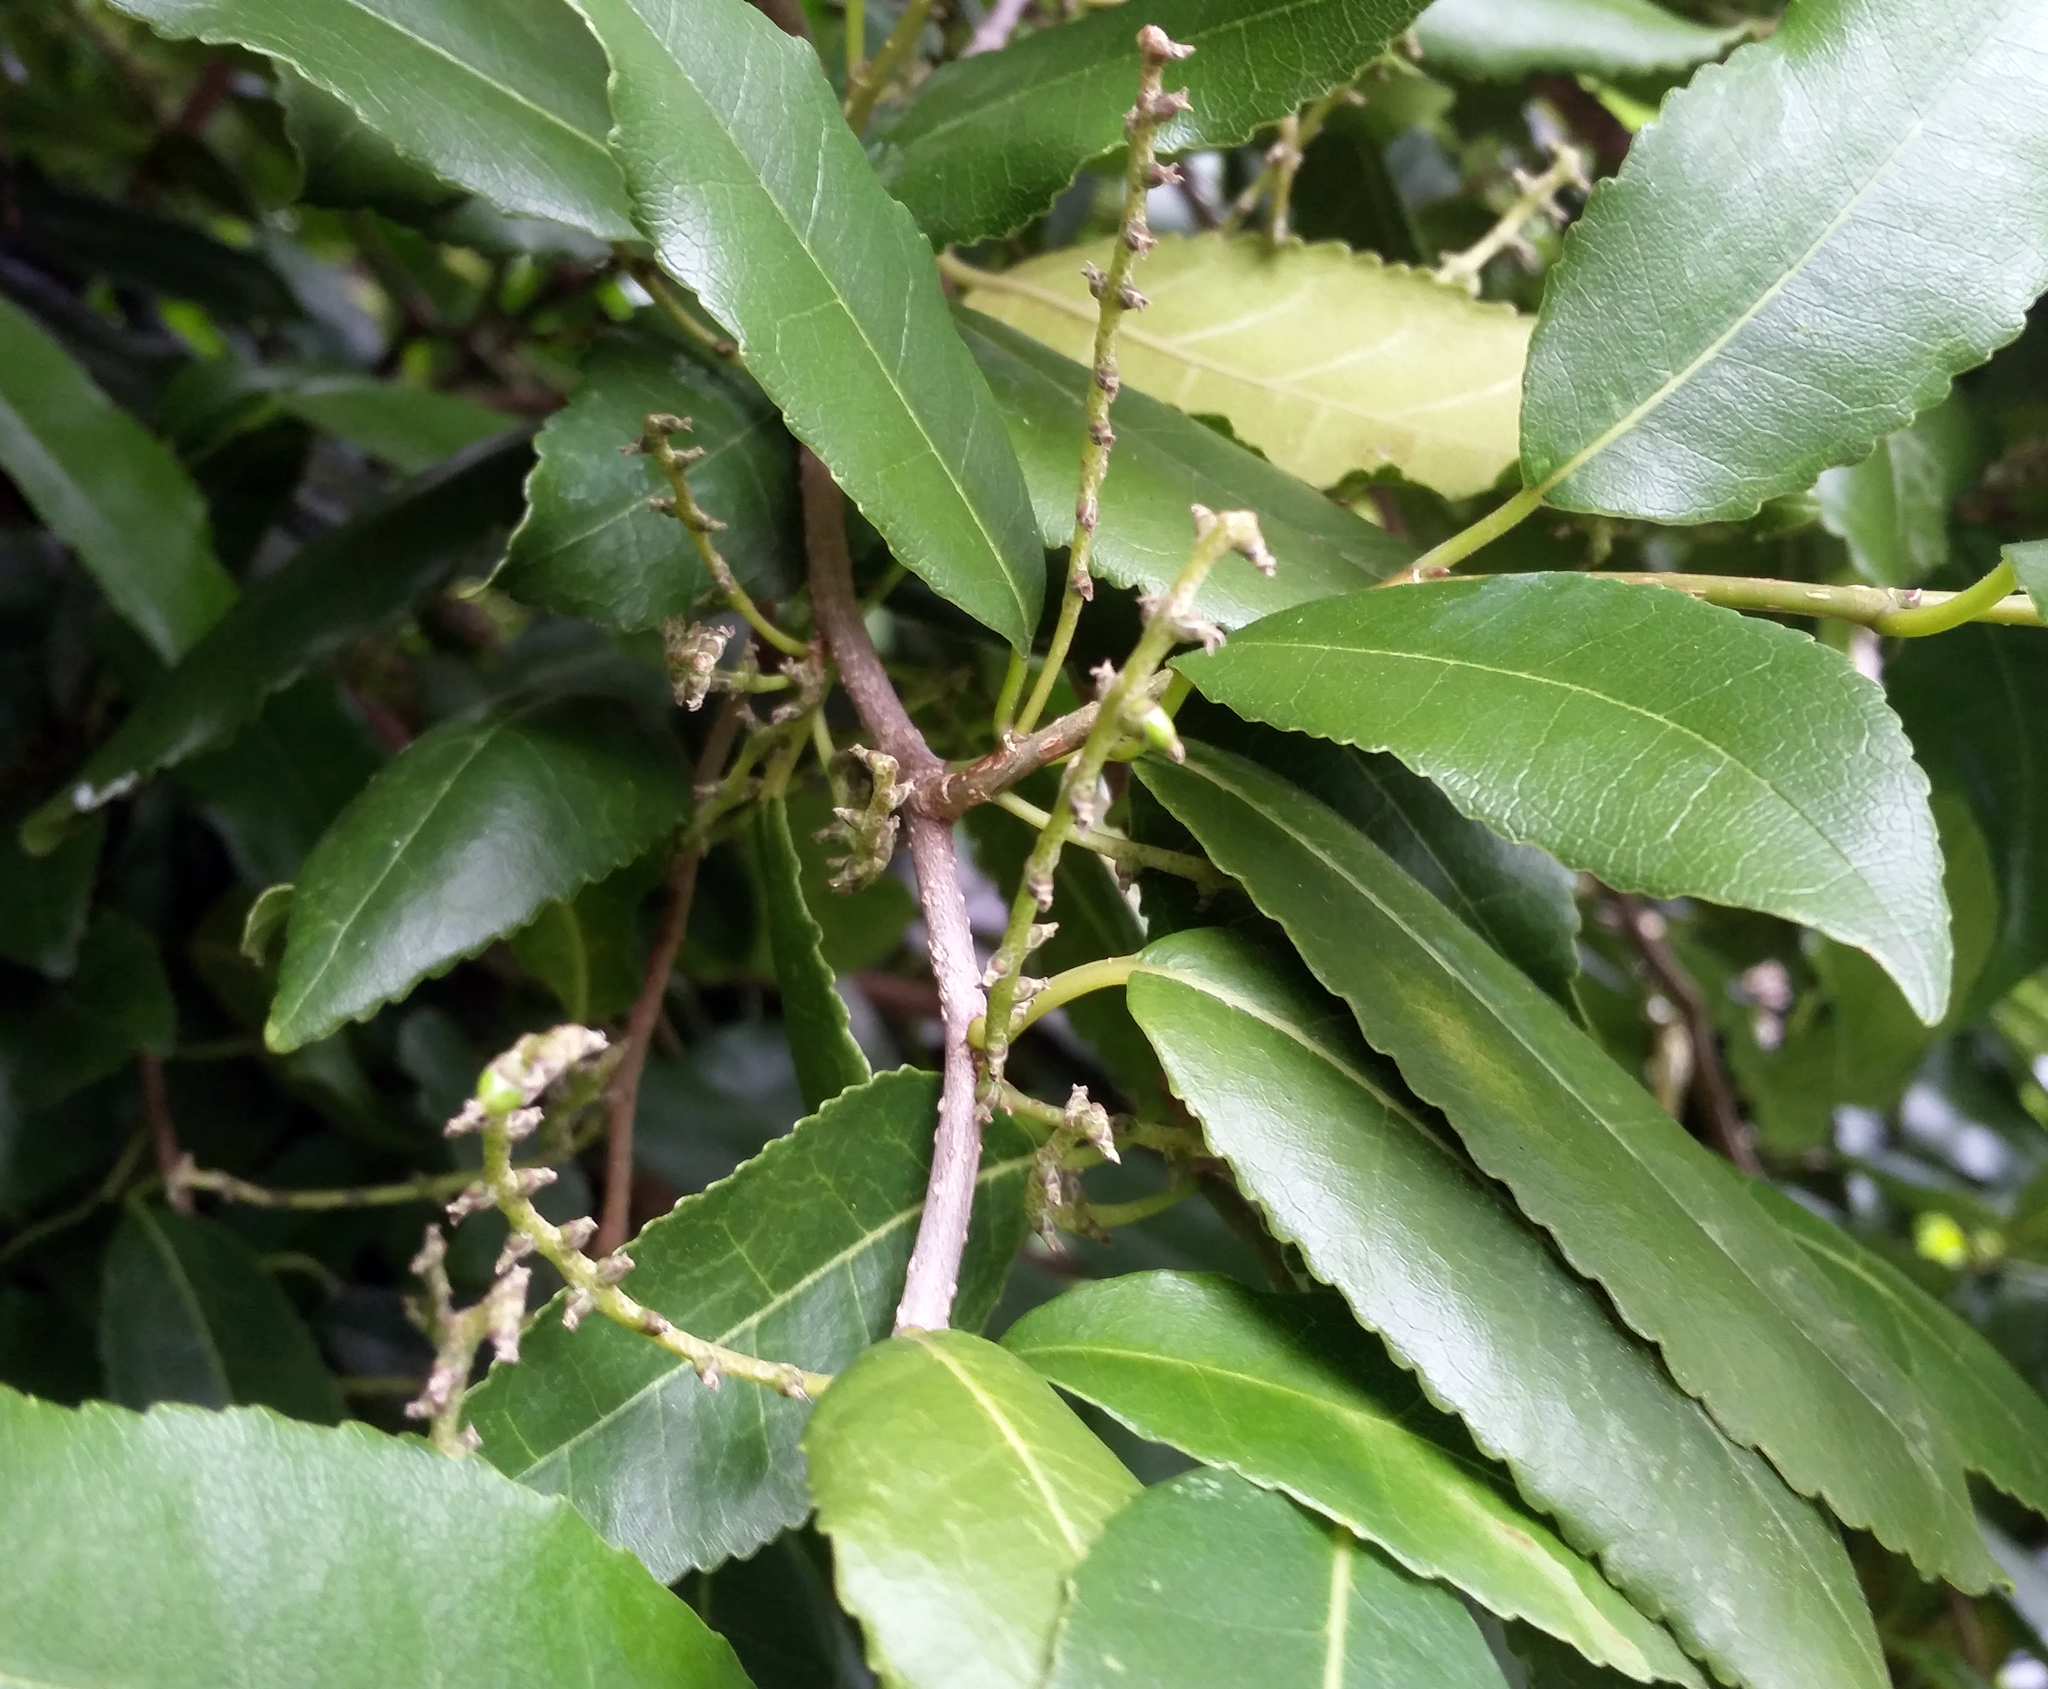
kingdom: Plantae
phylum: Tracheophyta
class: Magnoliopsida
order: Rosales
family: Moraceae
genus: Paratrophis
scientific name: Paratrophis banksii
